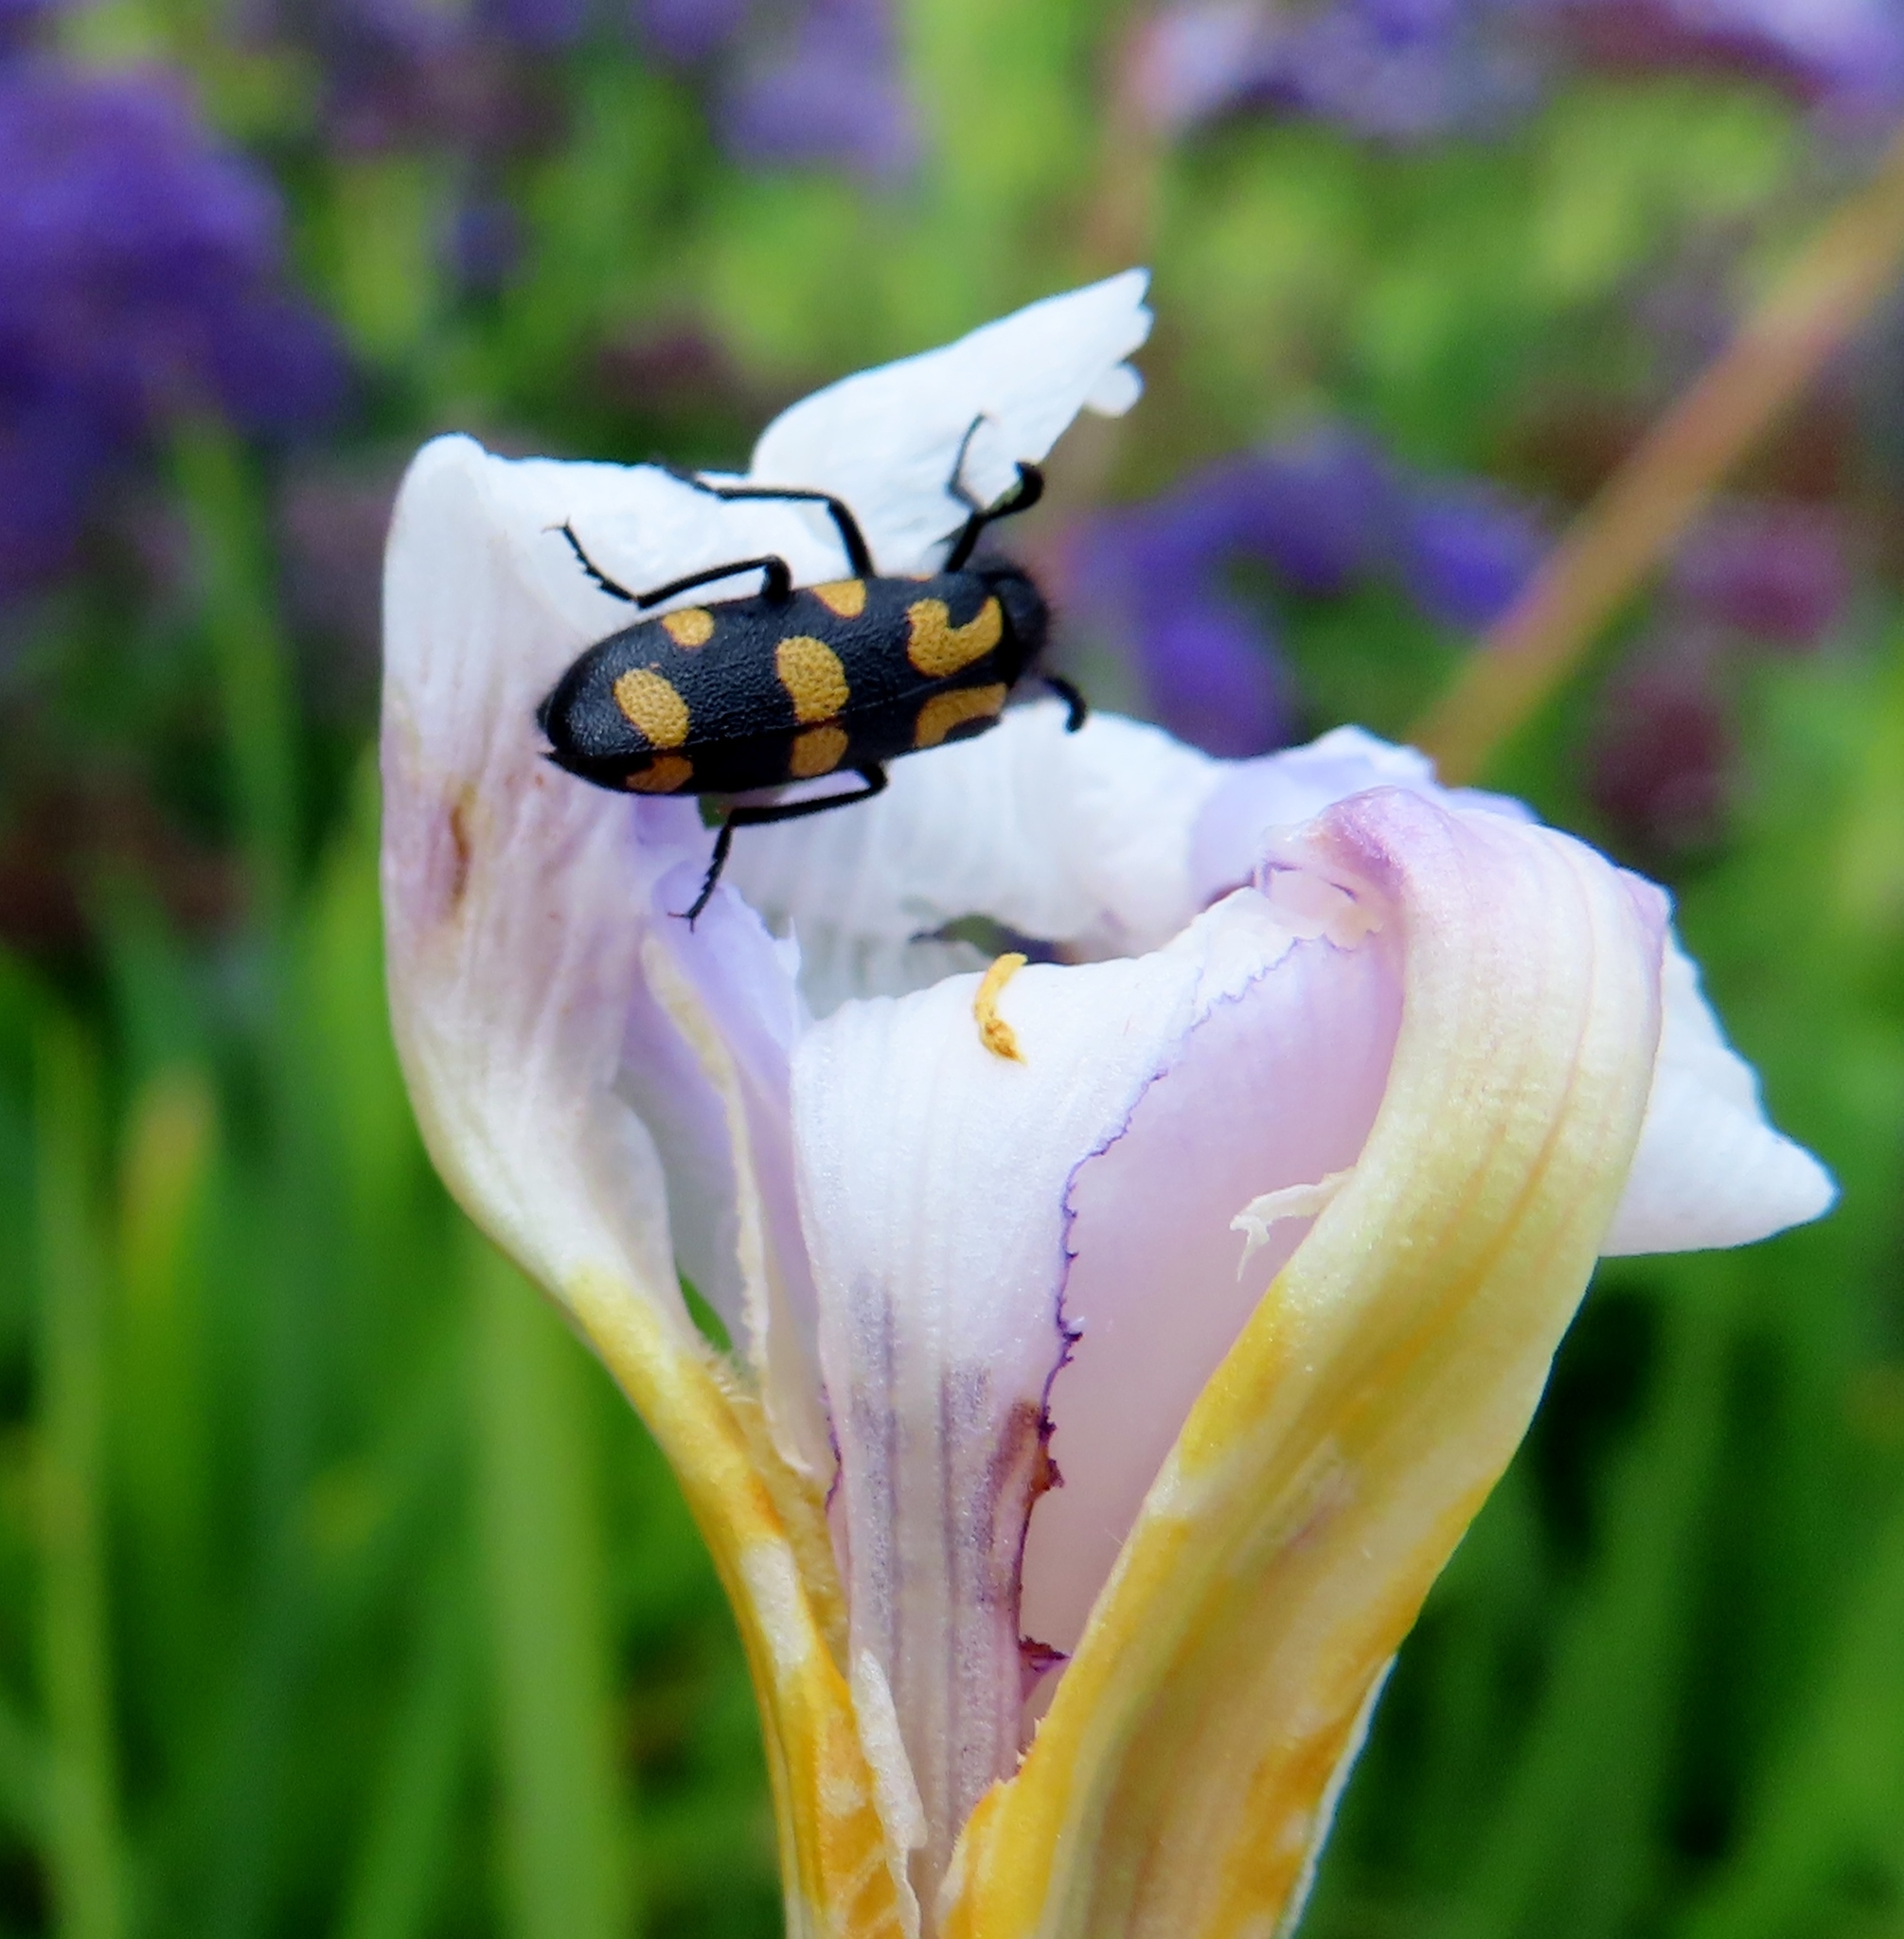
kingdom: Animalia
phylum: Arthropoda
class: Insecta
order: Coleoptera
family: Meloidae
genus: Ceroctis
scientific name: Ceroctis capensis
